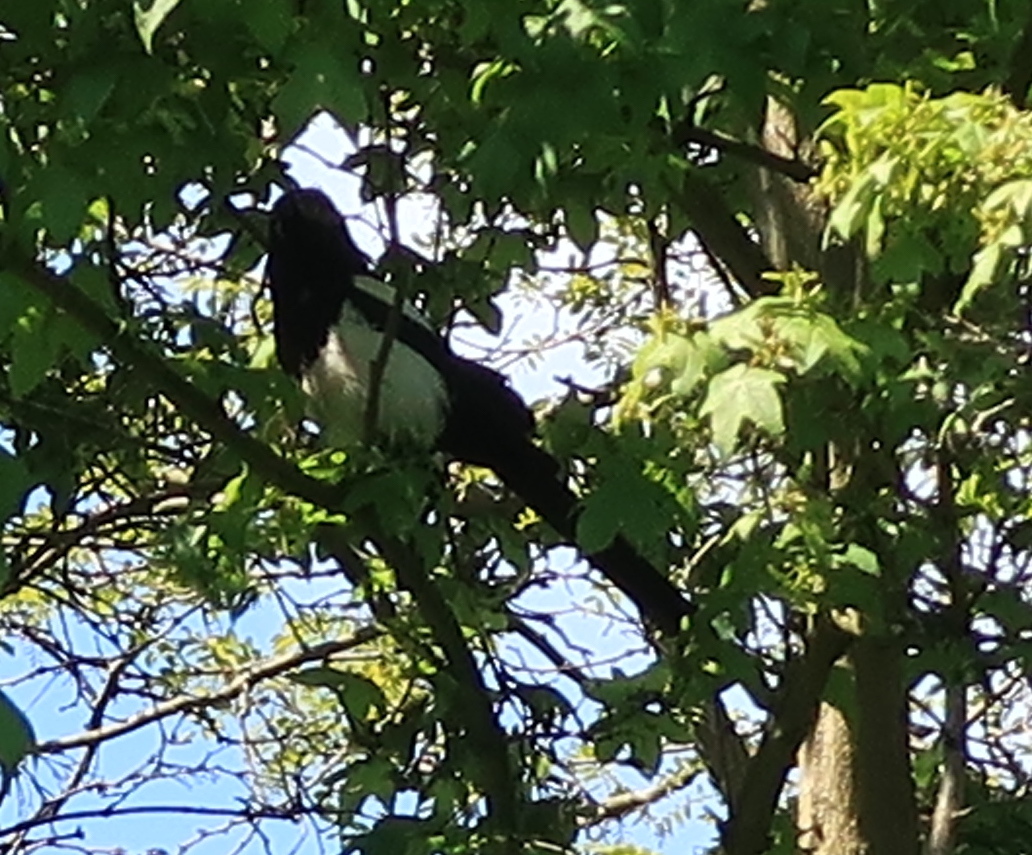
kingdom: Animalia
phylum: Chordata
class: Aves
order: Passeriformes
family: Corvidae
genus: Pica
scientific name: Pica pica
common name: Eurasian magpie
